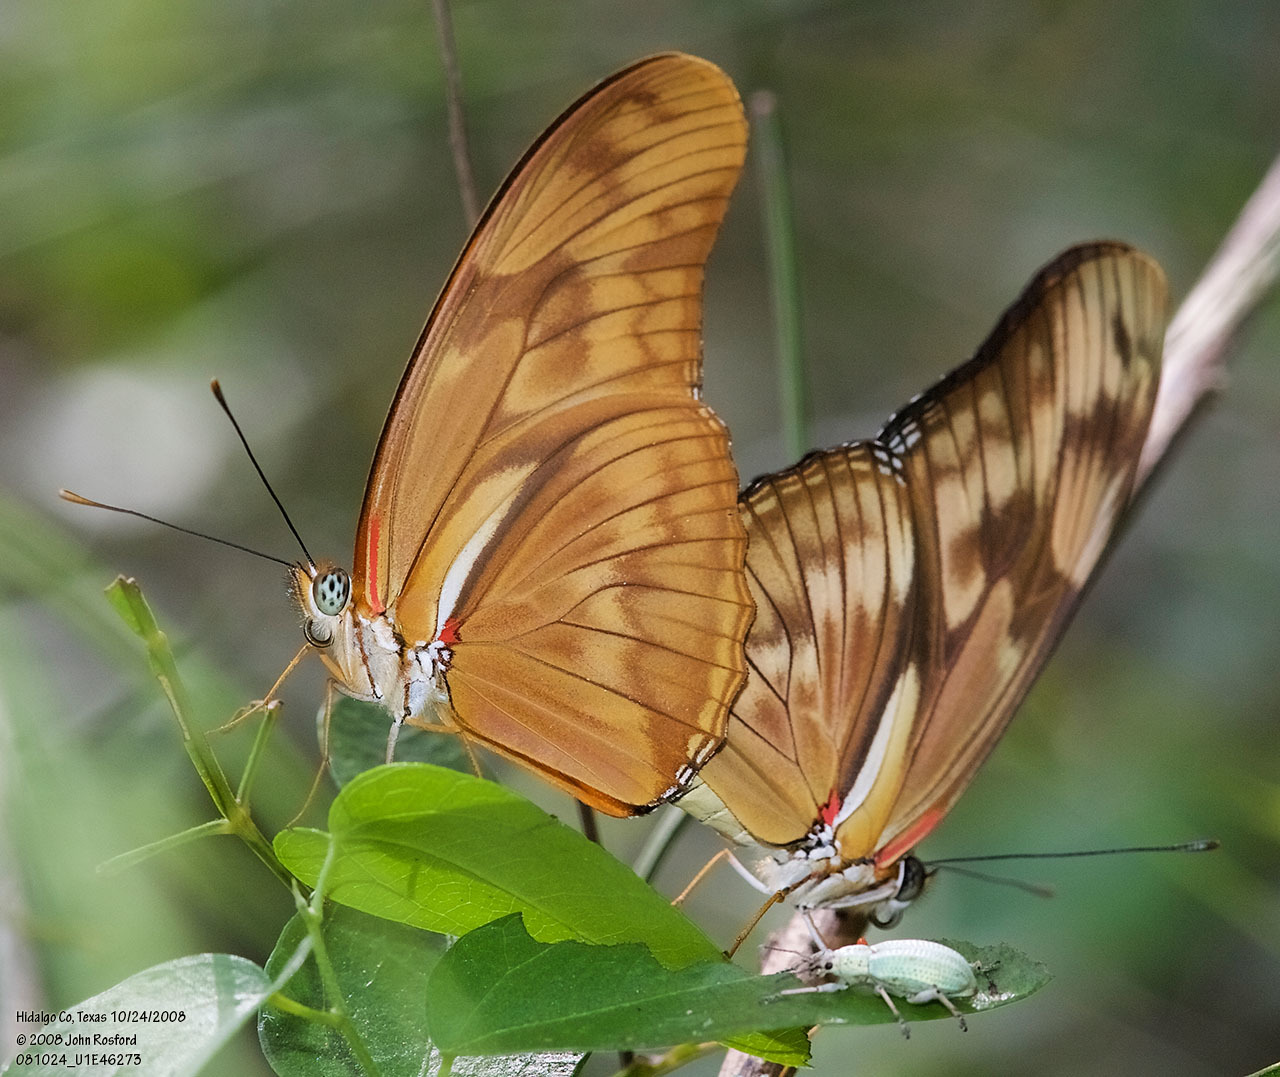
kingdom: Animalia
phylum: Arthropoda
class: Insecta
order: Lepidoptera
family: Nymphalidae
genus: Dryas
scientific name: Dryas iulia
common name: Flambeau
